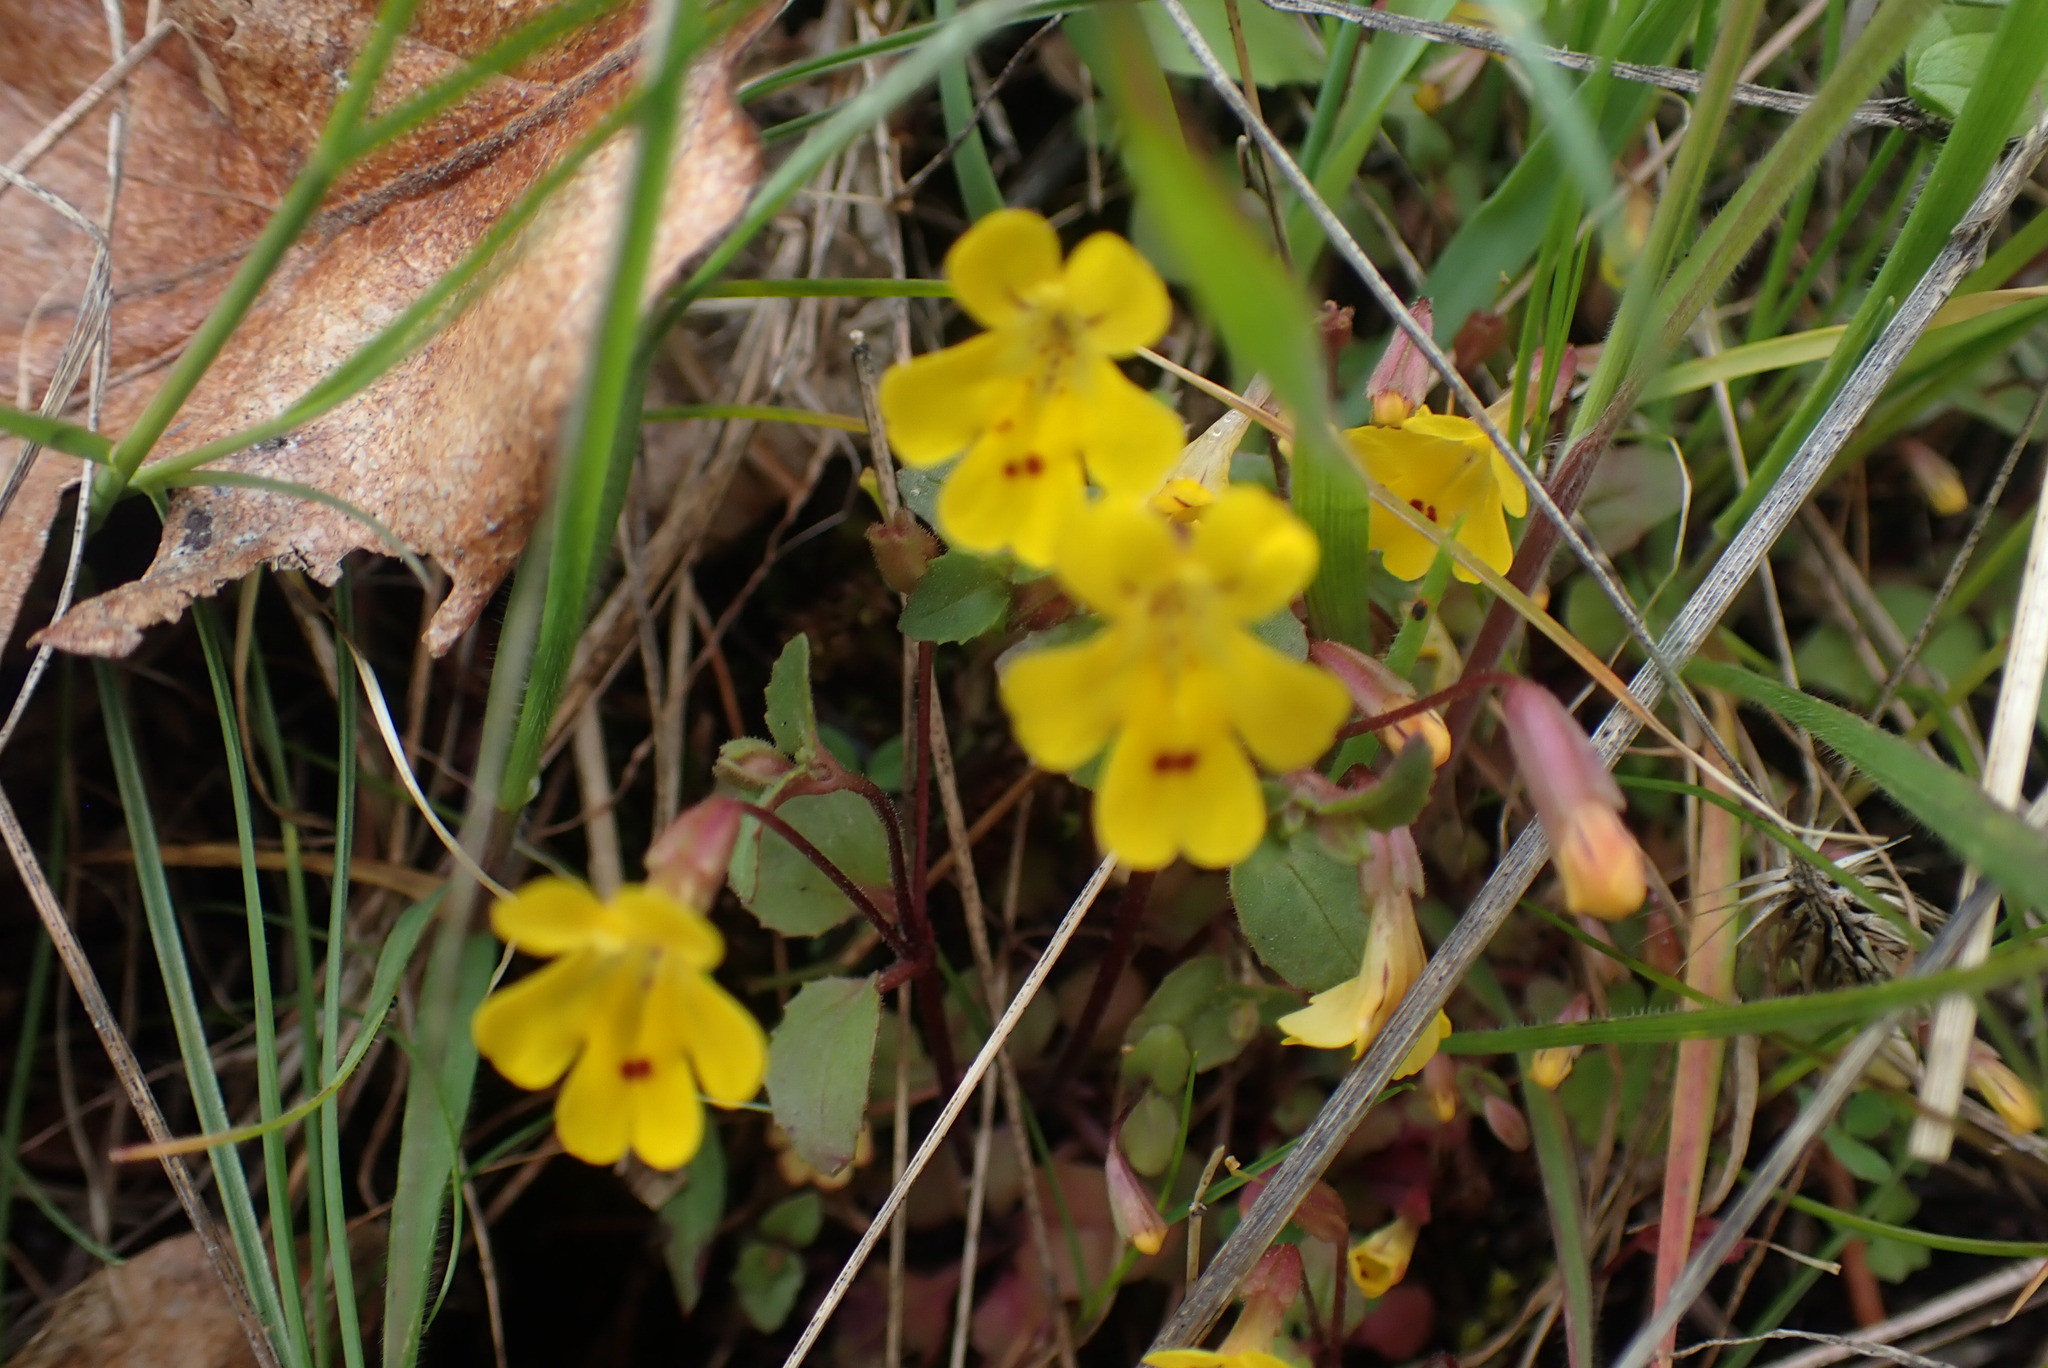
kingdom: Plantae
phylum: Tracheophyta
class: Magnoliopsida
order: Lamiales
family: Phrymaceae
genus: Erythranthe
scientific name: Erythranthe alsinoides
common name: Chickweed monkeyflower
